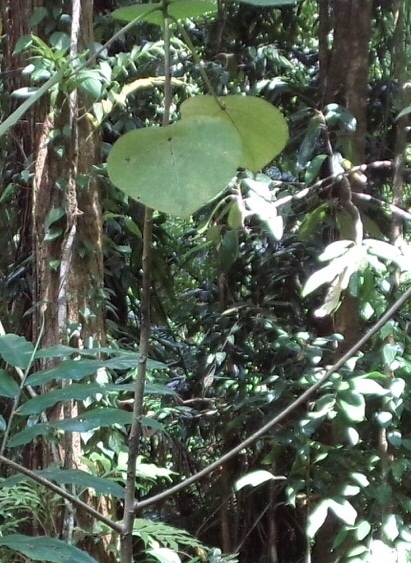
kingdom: Plantae
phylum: Tracheophyta
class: Magnoliopsida
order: Rosales
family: Urticaceae
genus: Dendrocnide
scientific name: Dendrocnide moroides
